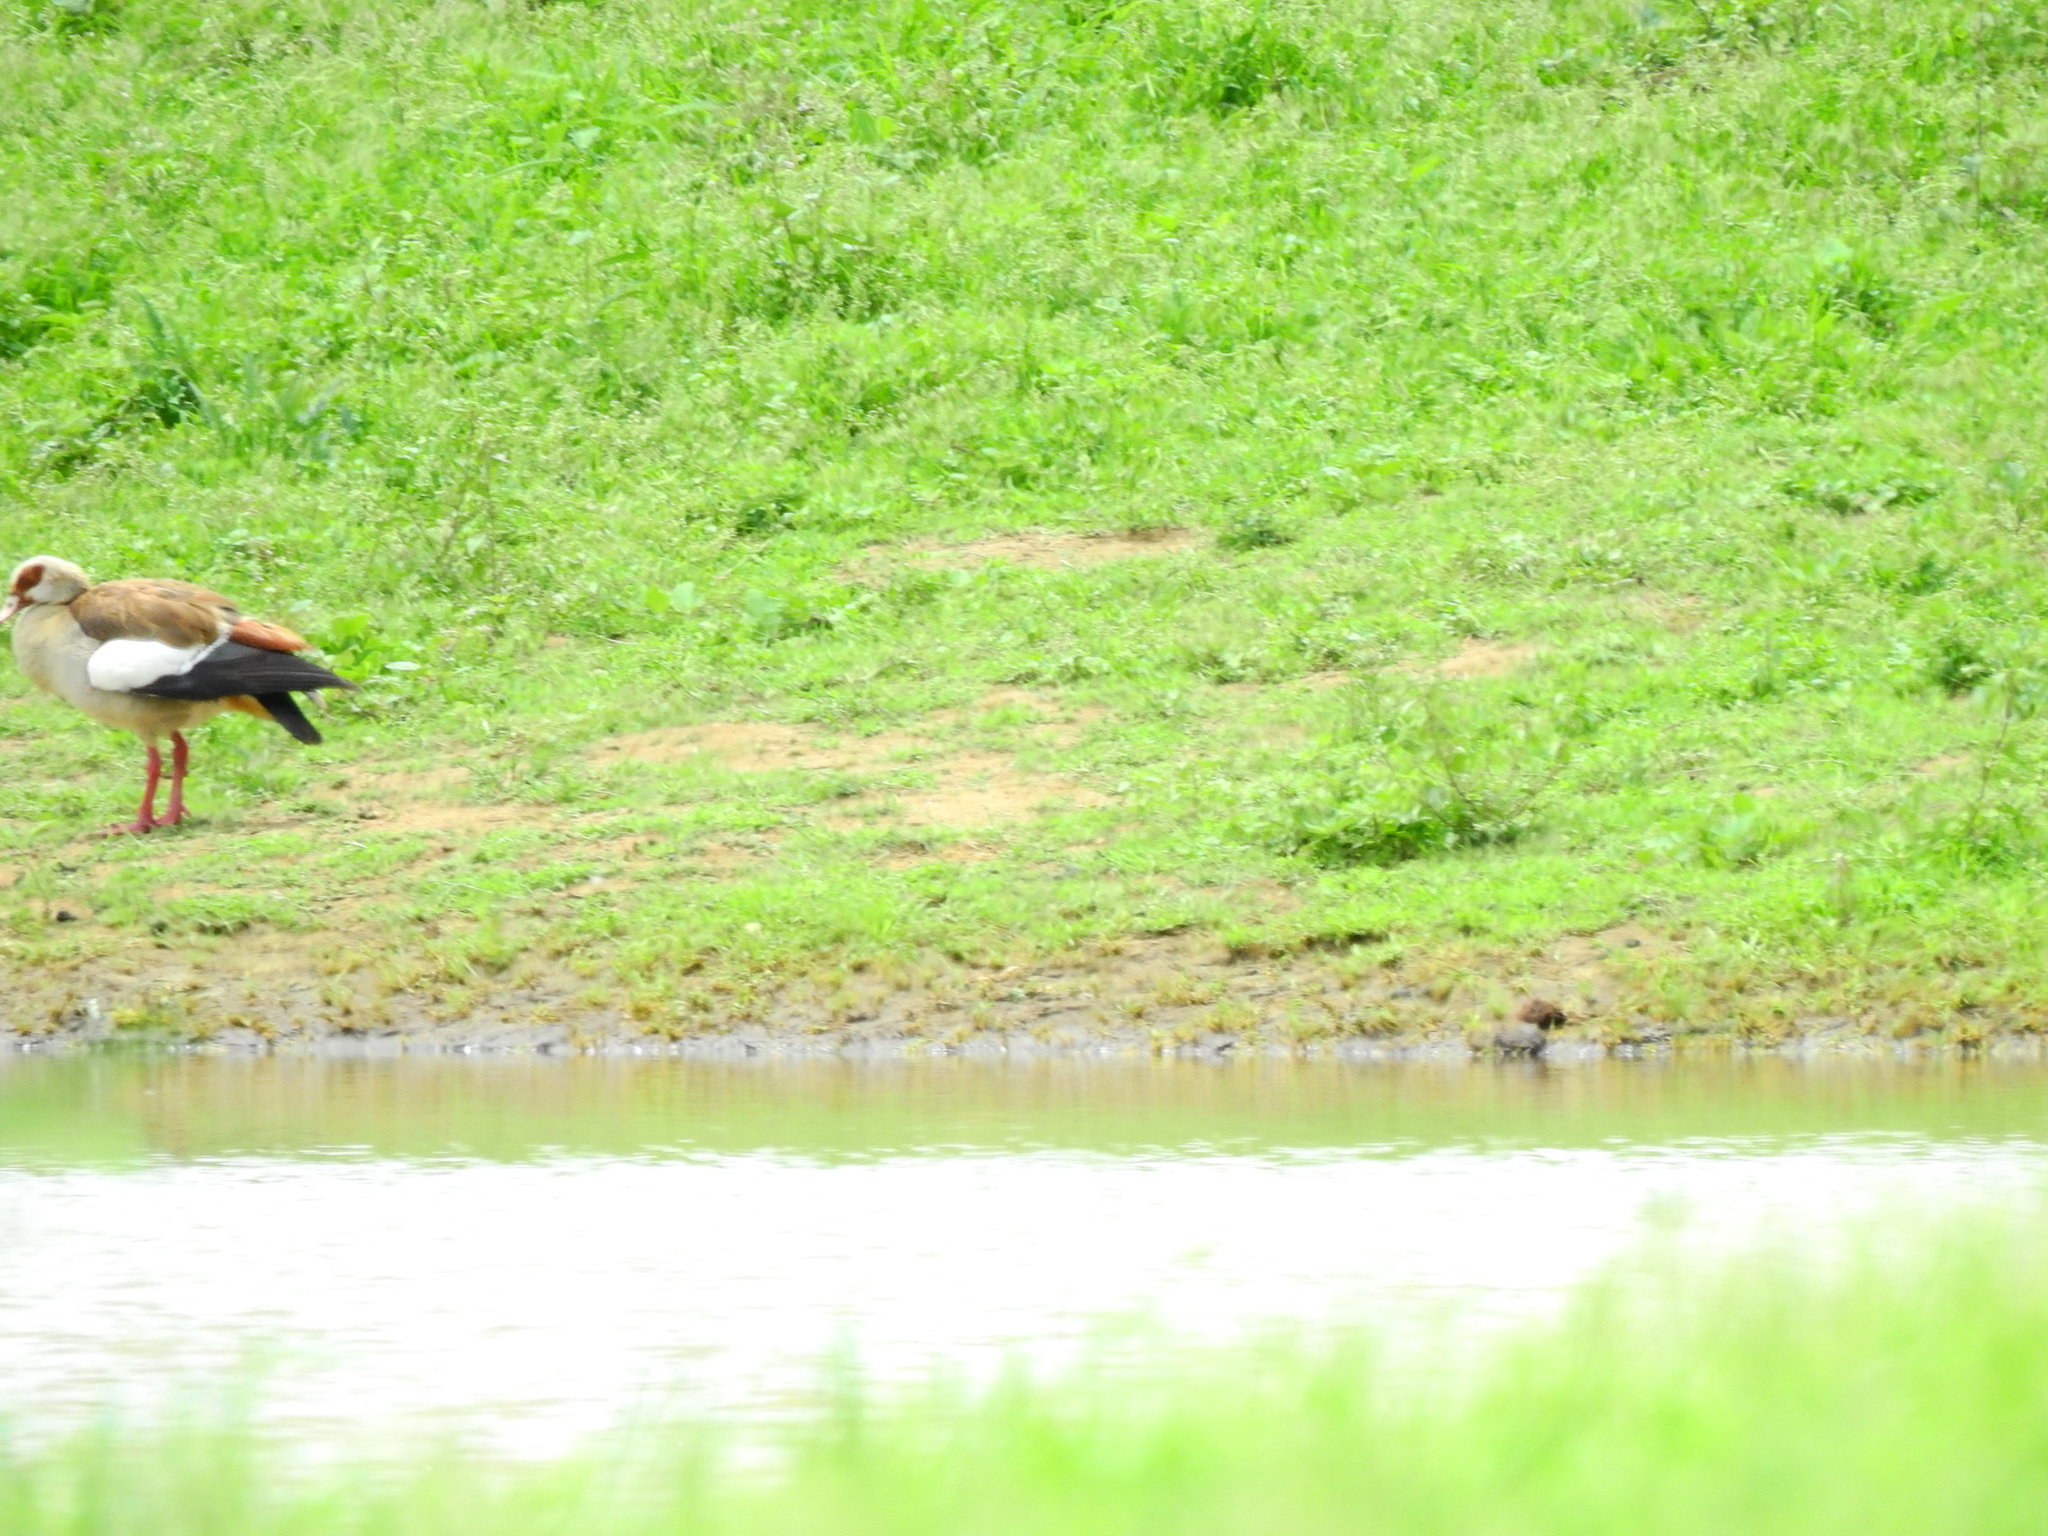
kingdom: Animalia
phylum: Chordata
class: Aves
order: Anseriformes
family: Anatidae
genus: Alopochen
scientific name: Alopochen aegyptiaca
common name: Egyptian goose
